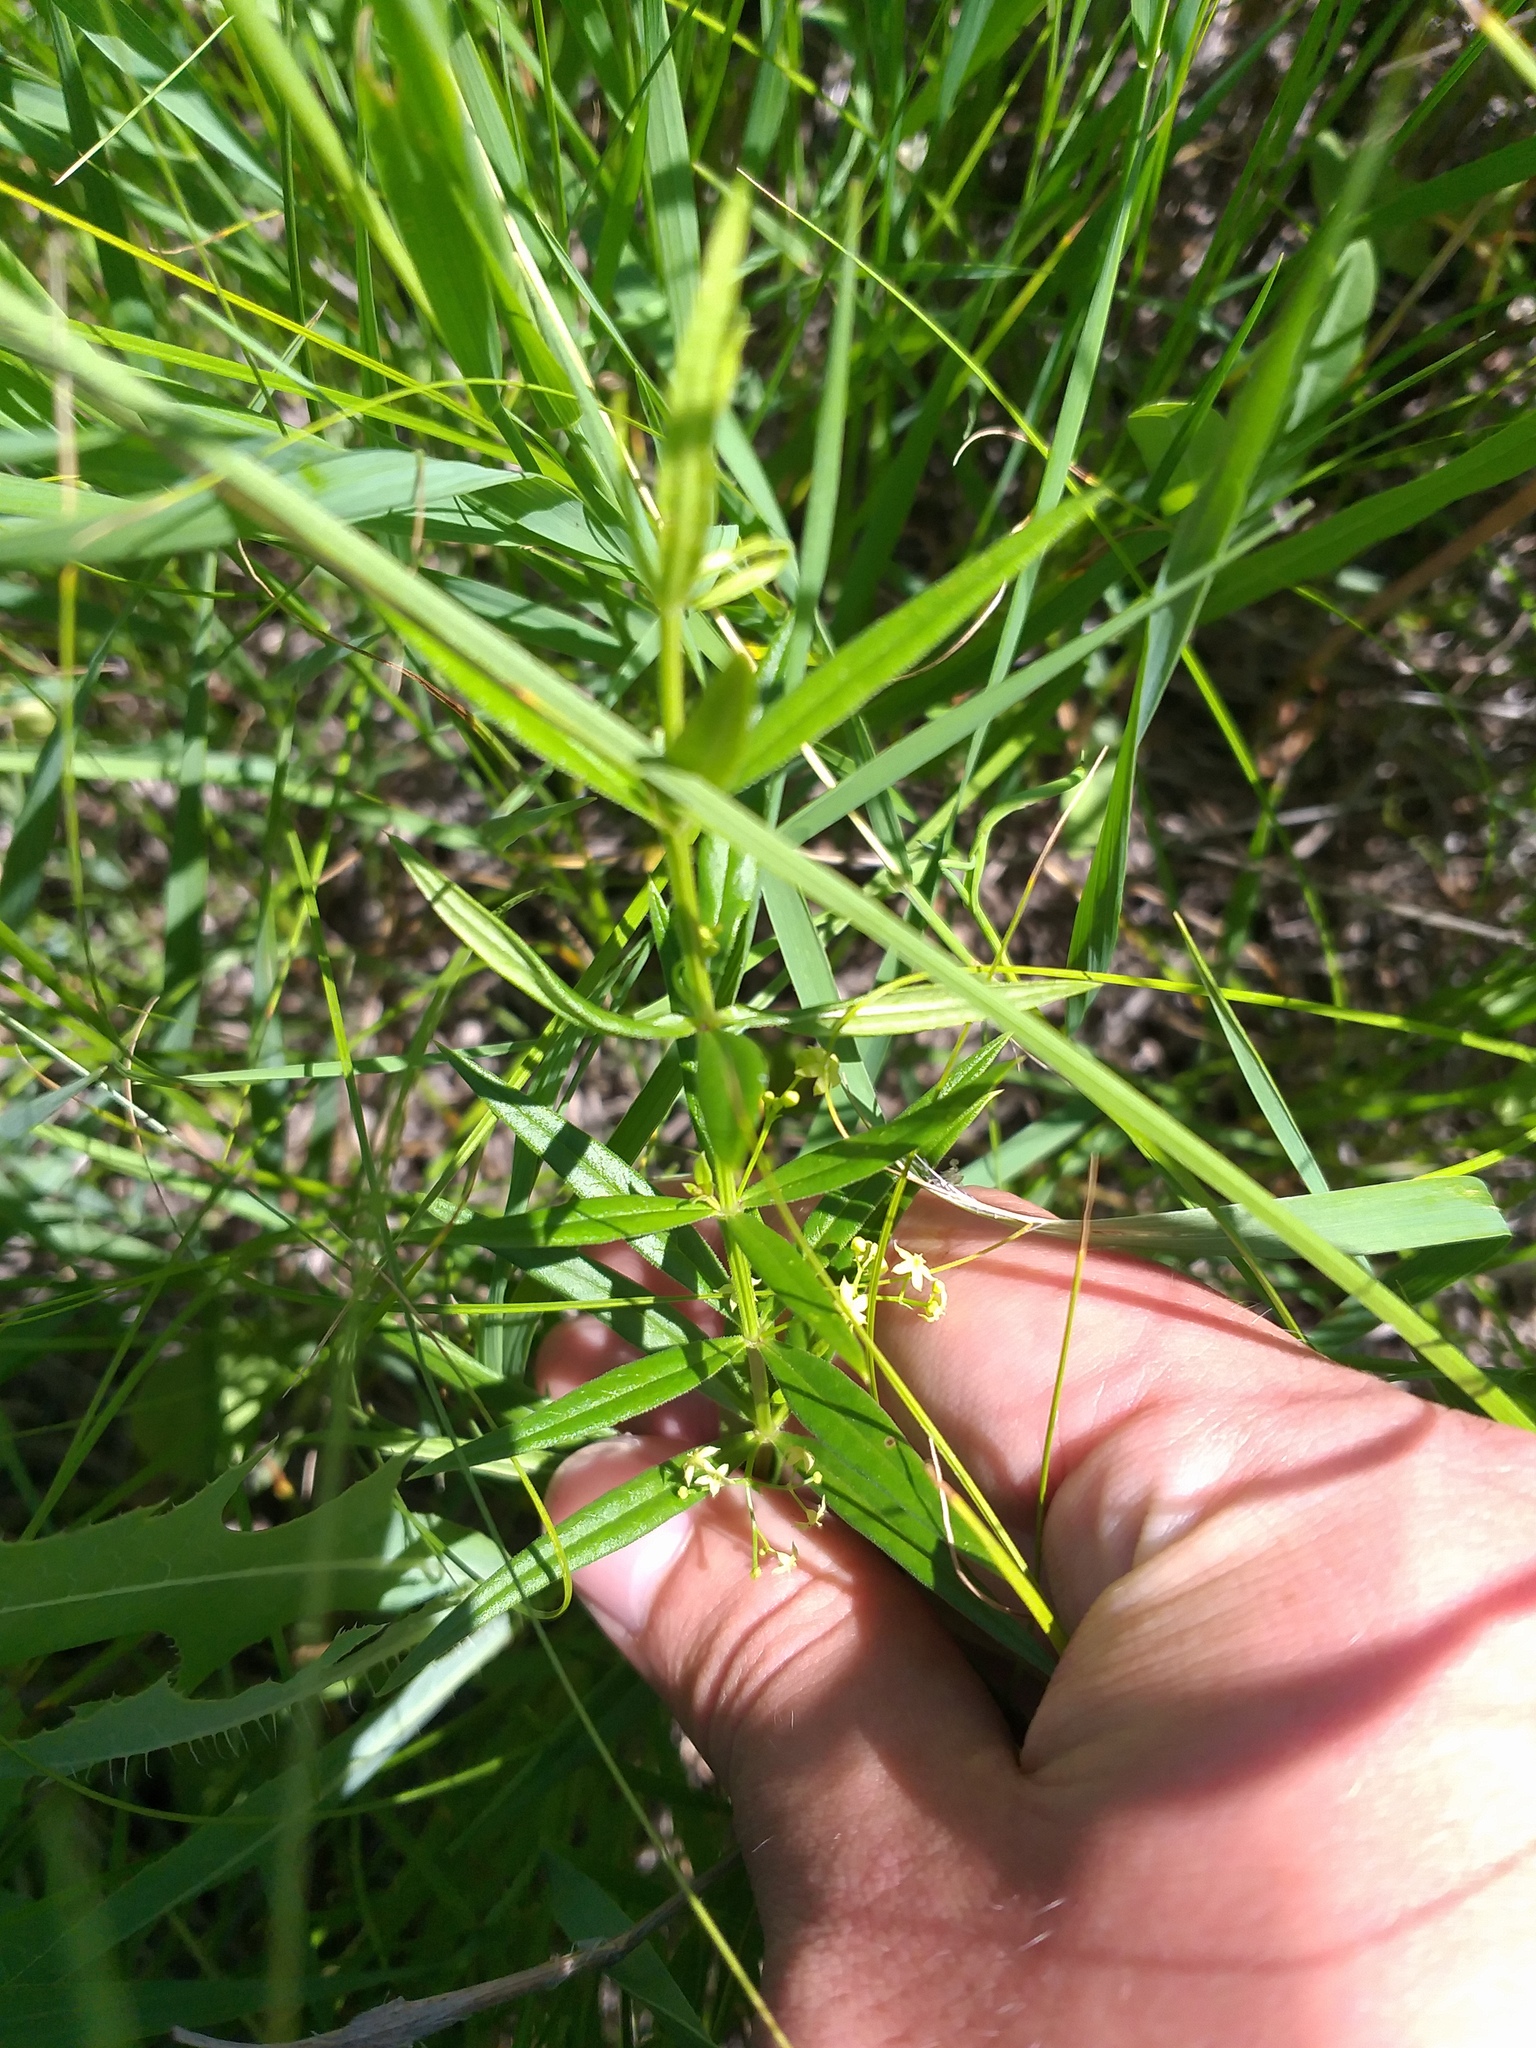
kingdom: Plantae
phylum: Tracheophyta
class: Magnoliopsida
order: Gentianales
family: Rubiaceae
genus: Rubia
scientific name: Rubia tatarica
